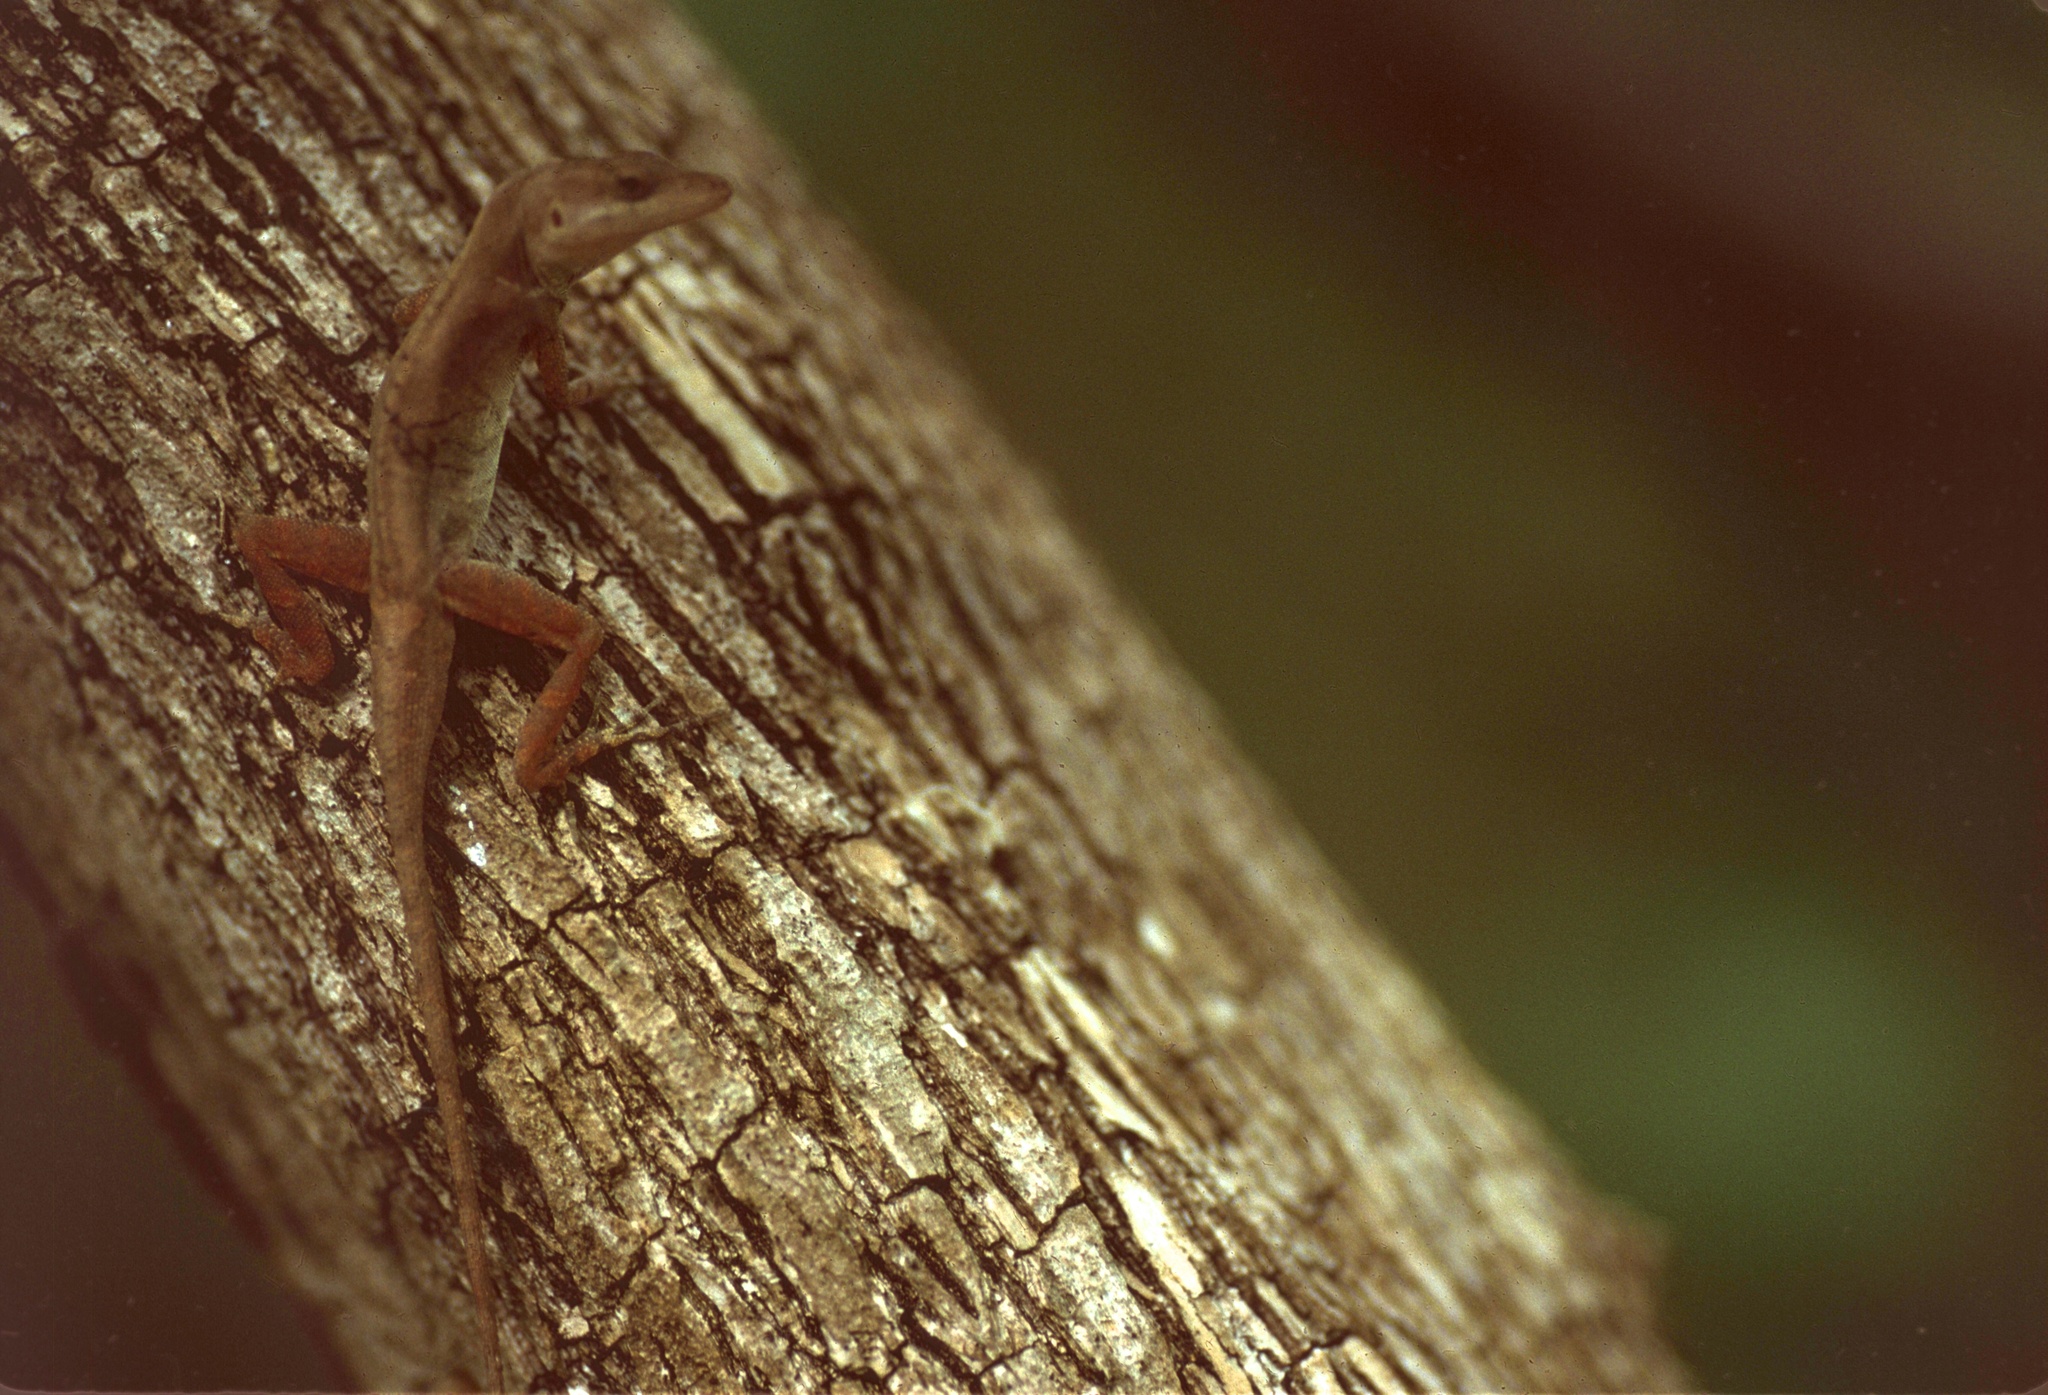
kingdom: Animalia
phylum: Chordata
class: Squamata
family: Dactyloidae
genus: Anolis
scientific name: Anolis cupreus
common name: Copper anole
